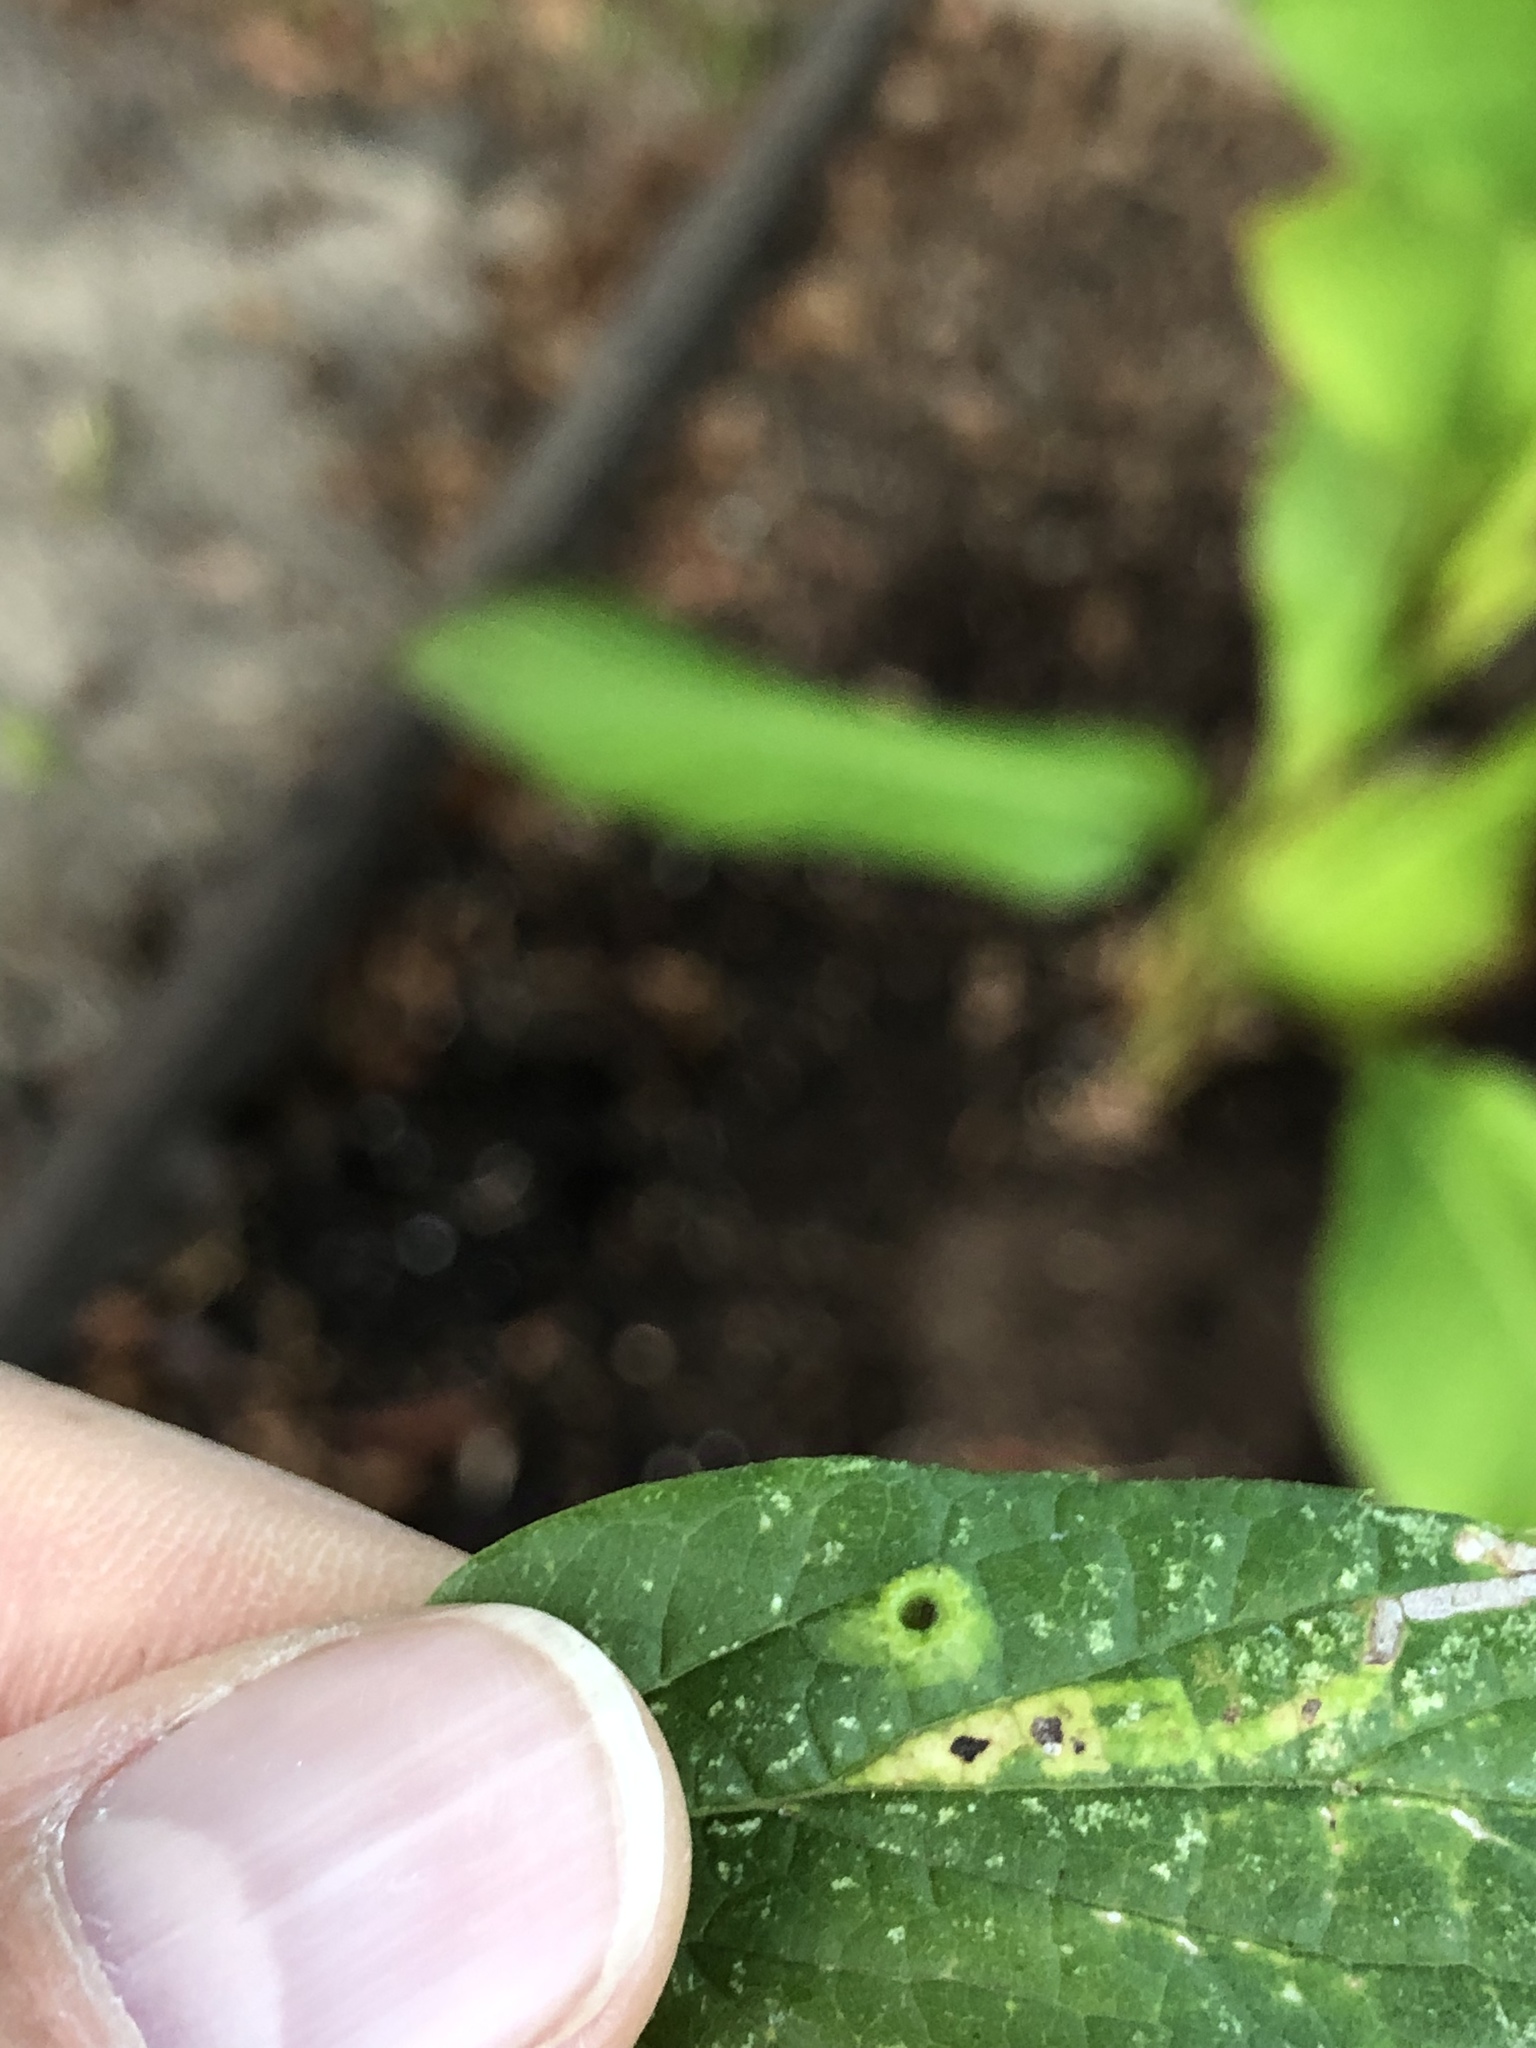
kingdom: Animalia
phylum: Arthropoda
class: Insecta
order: Hemiptera
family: Aphalaridae
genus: Pachypsylla
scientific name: Pachypsylla celtidismamma
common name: Hackberry nipplegall psyllid
